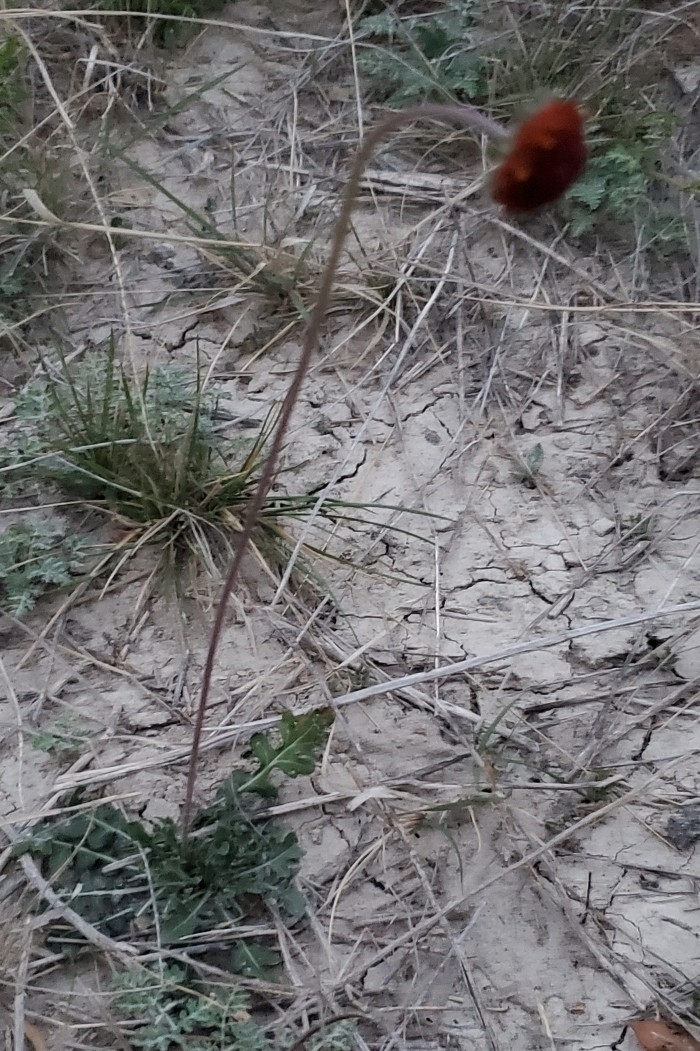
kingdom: Plantae
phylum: Tracheophyta
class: Magnoliopsida
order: Asterales
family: Asteraceae
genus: Gaillardia
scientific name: Gaillardia suavis
